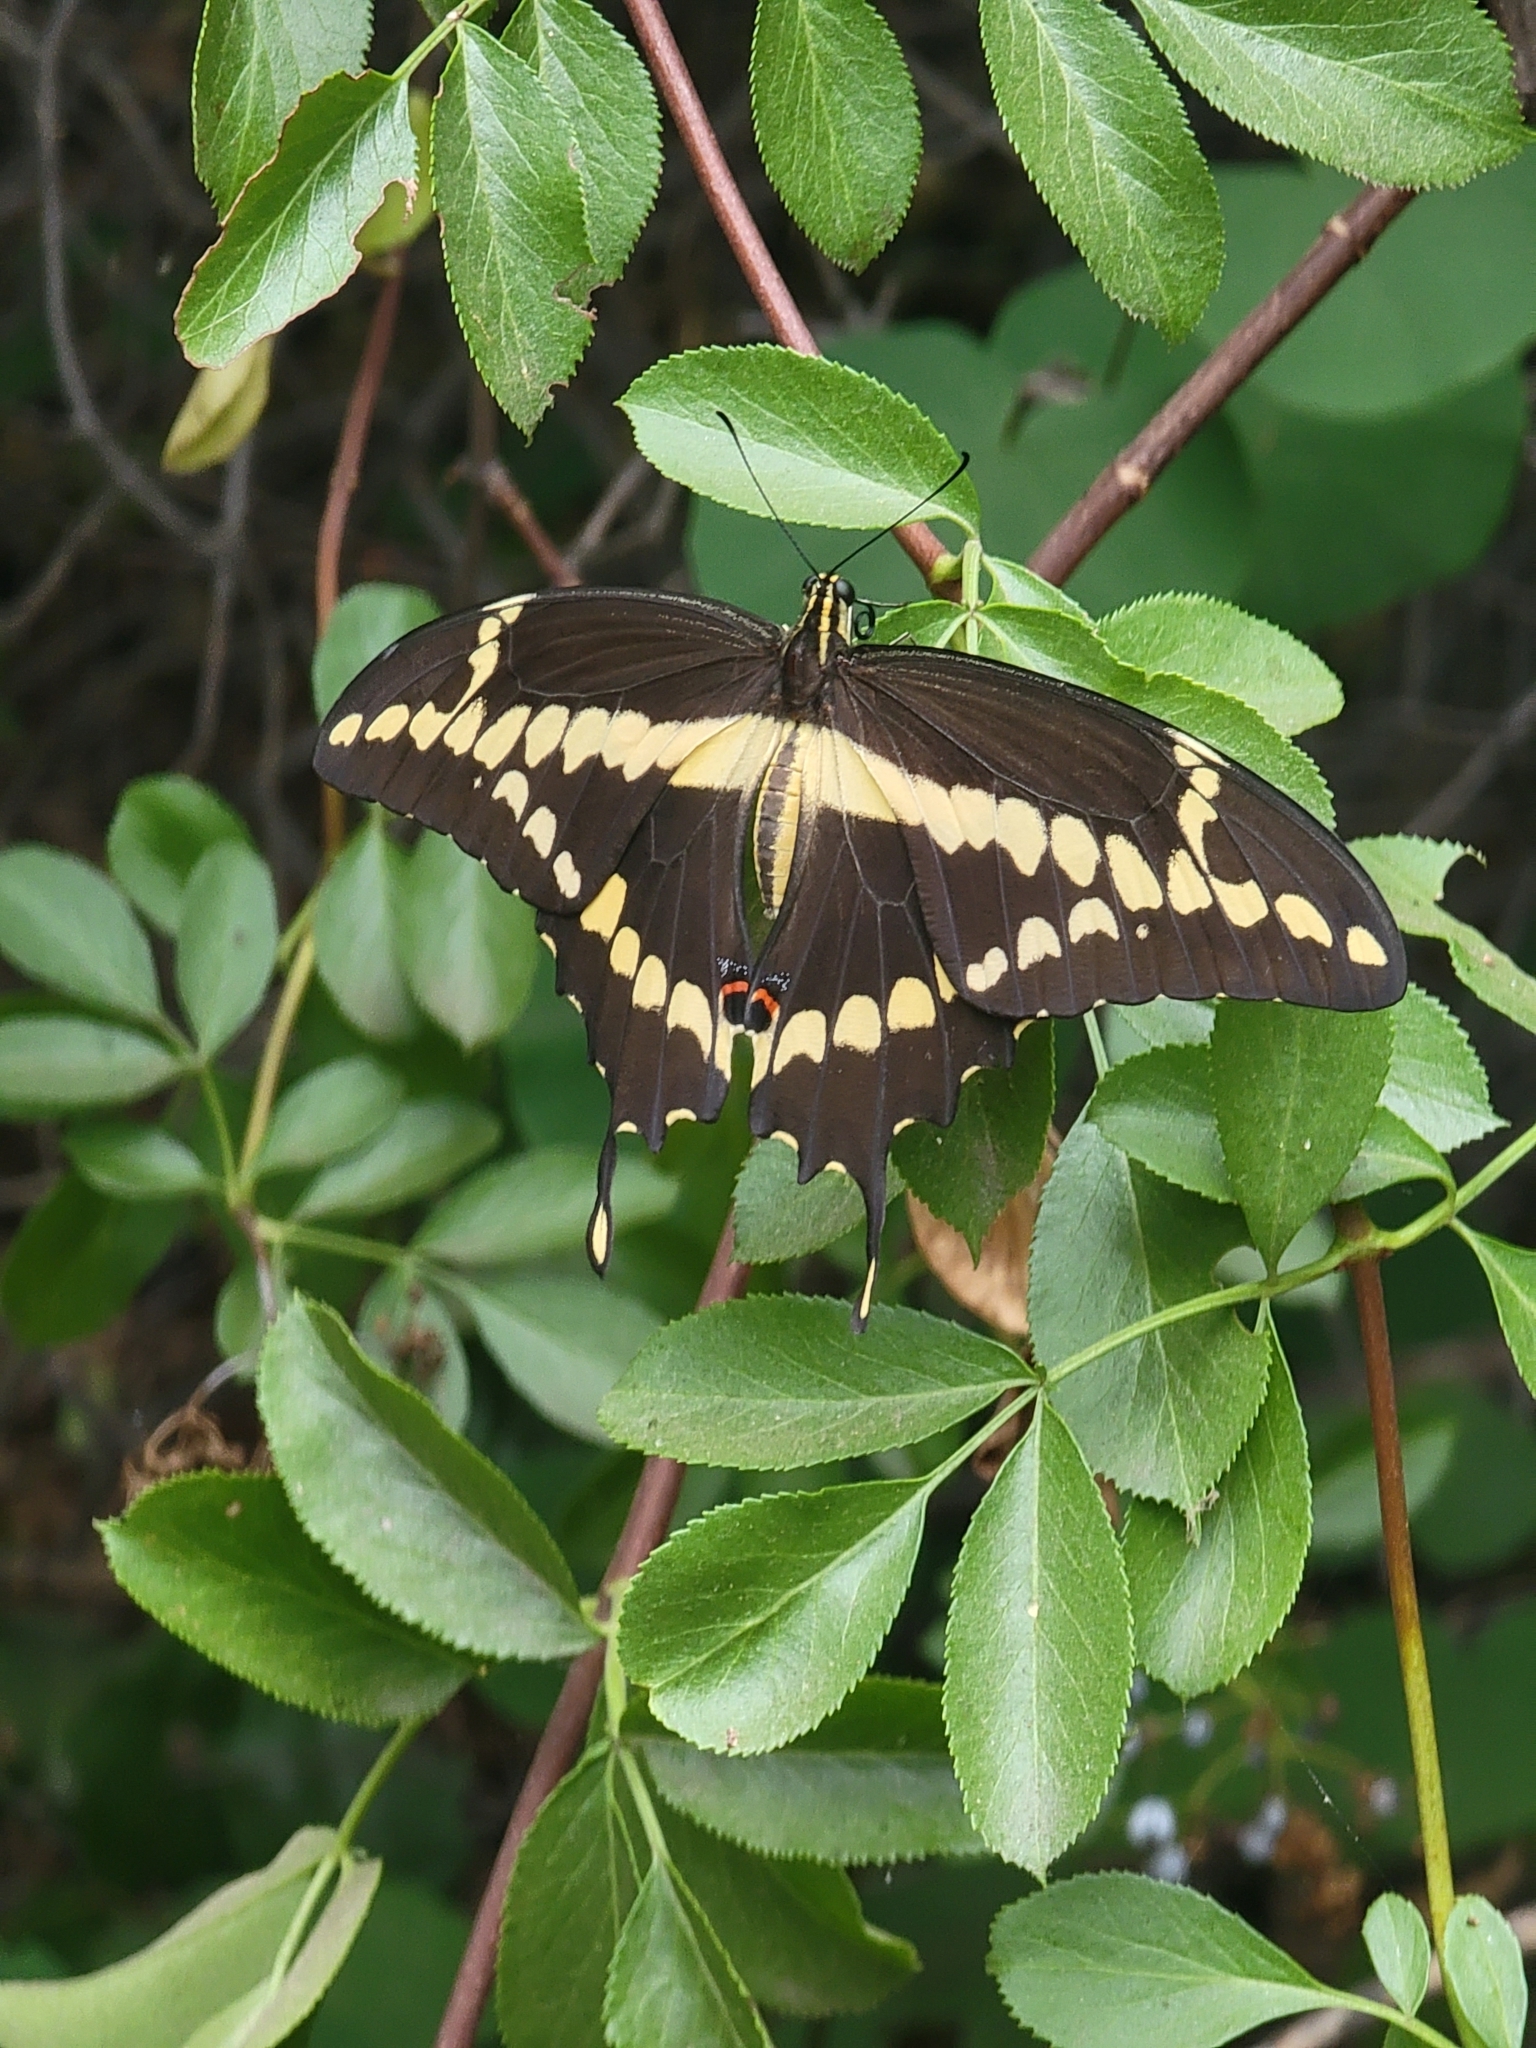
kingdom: Animalia
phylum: Arthropoda
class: Insecta
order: Lepidoptera
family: Papilionidae
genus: Papilio
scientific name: Papilio rumiko
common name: Western giant swallowtail
